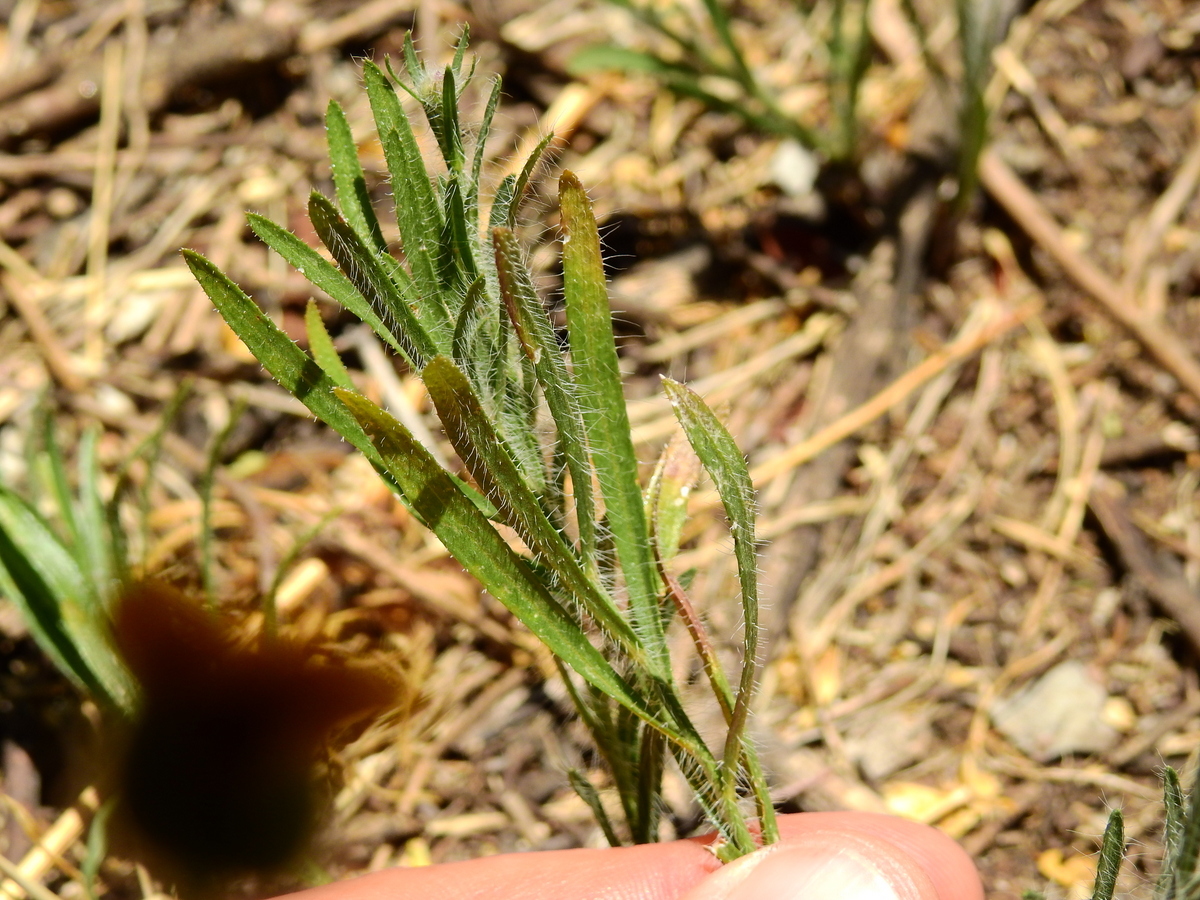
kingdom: Plantae
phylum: Tracheophyta
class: Magnoliopsida
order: Asterales
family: Asteraceae
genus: Hysterionica
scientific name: Hysterionica jasionoides
